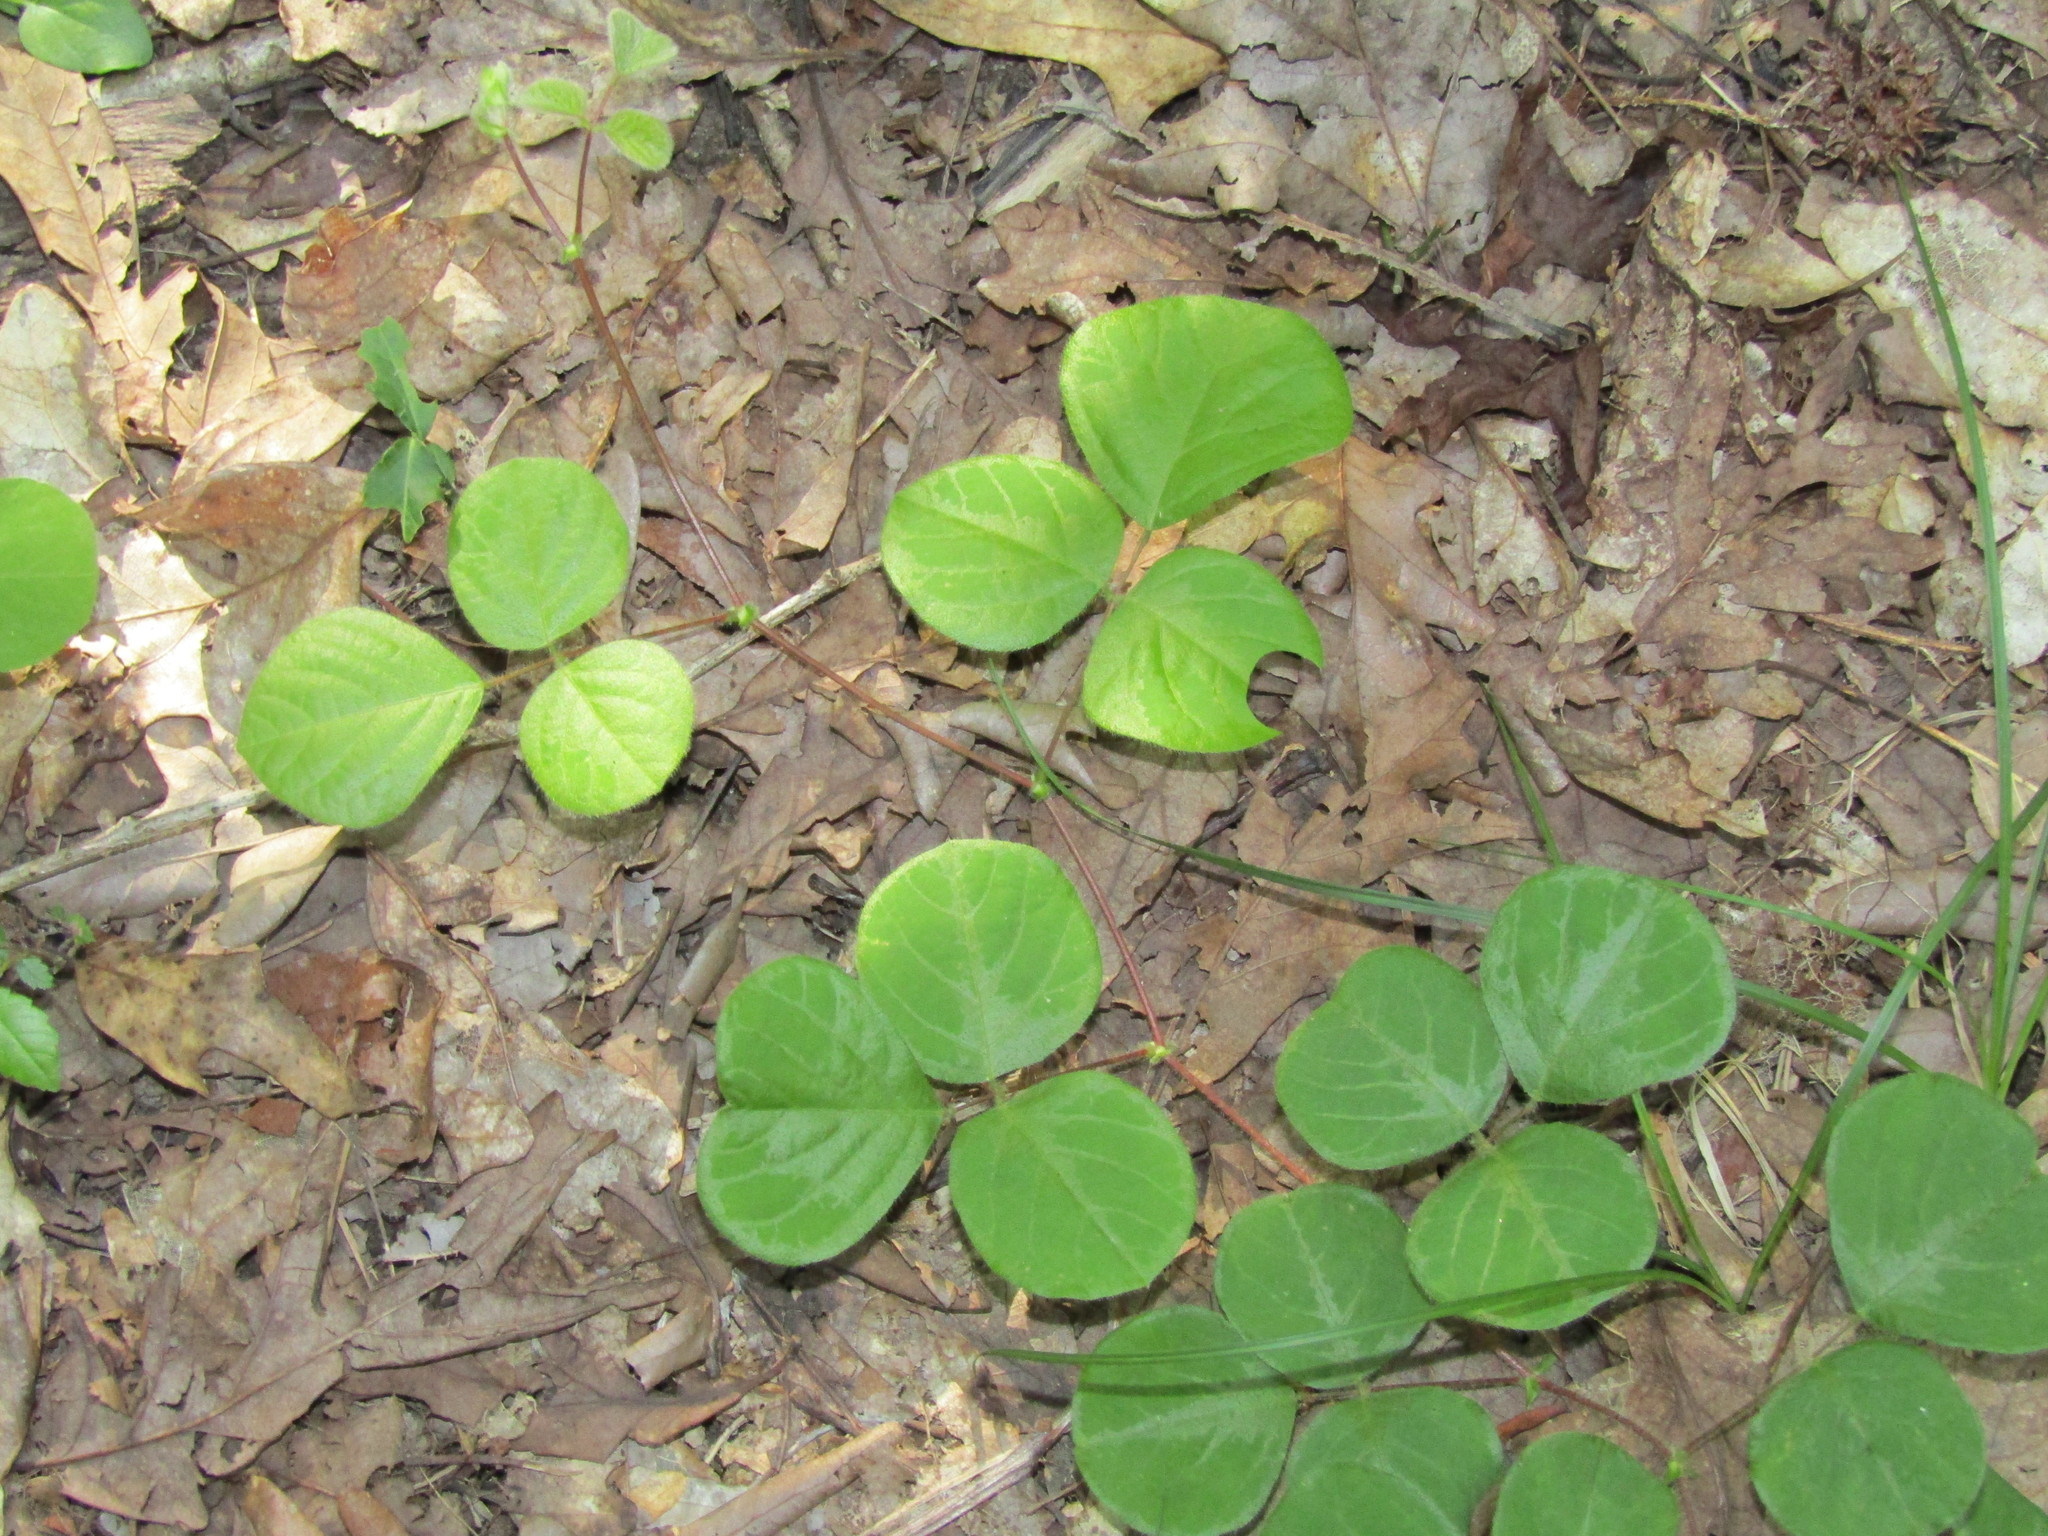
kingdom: Plantae
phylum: Tracheophyta
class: Magnoliopsida
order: Fabales
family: Fabaceae
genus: Desmodium
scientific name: Desmodium rotundifolium
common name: Dollarleaf
